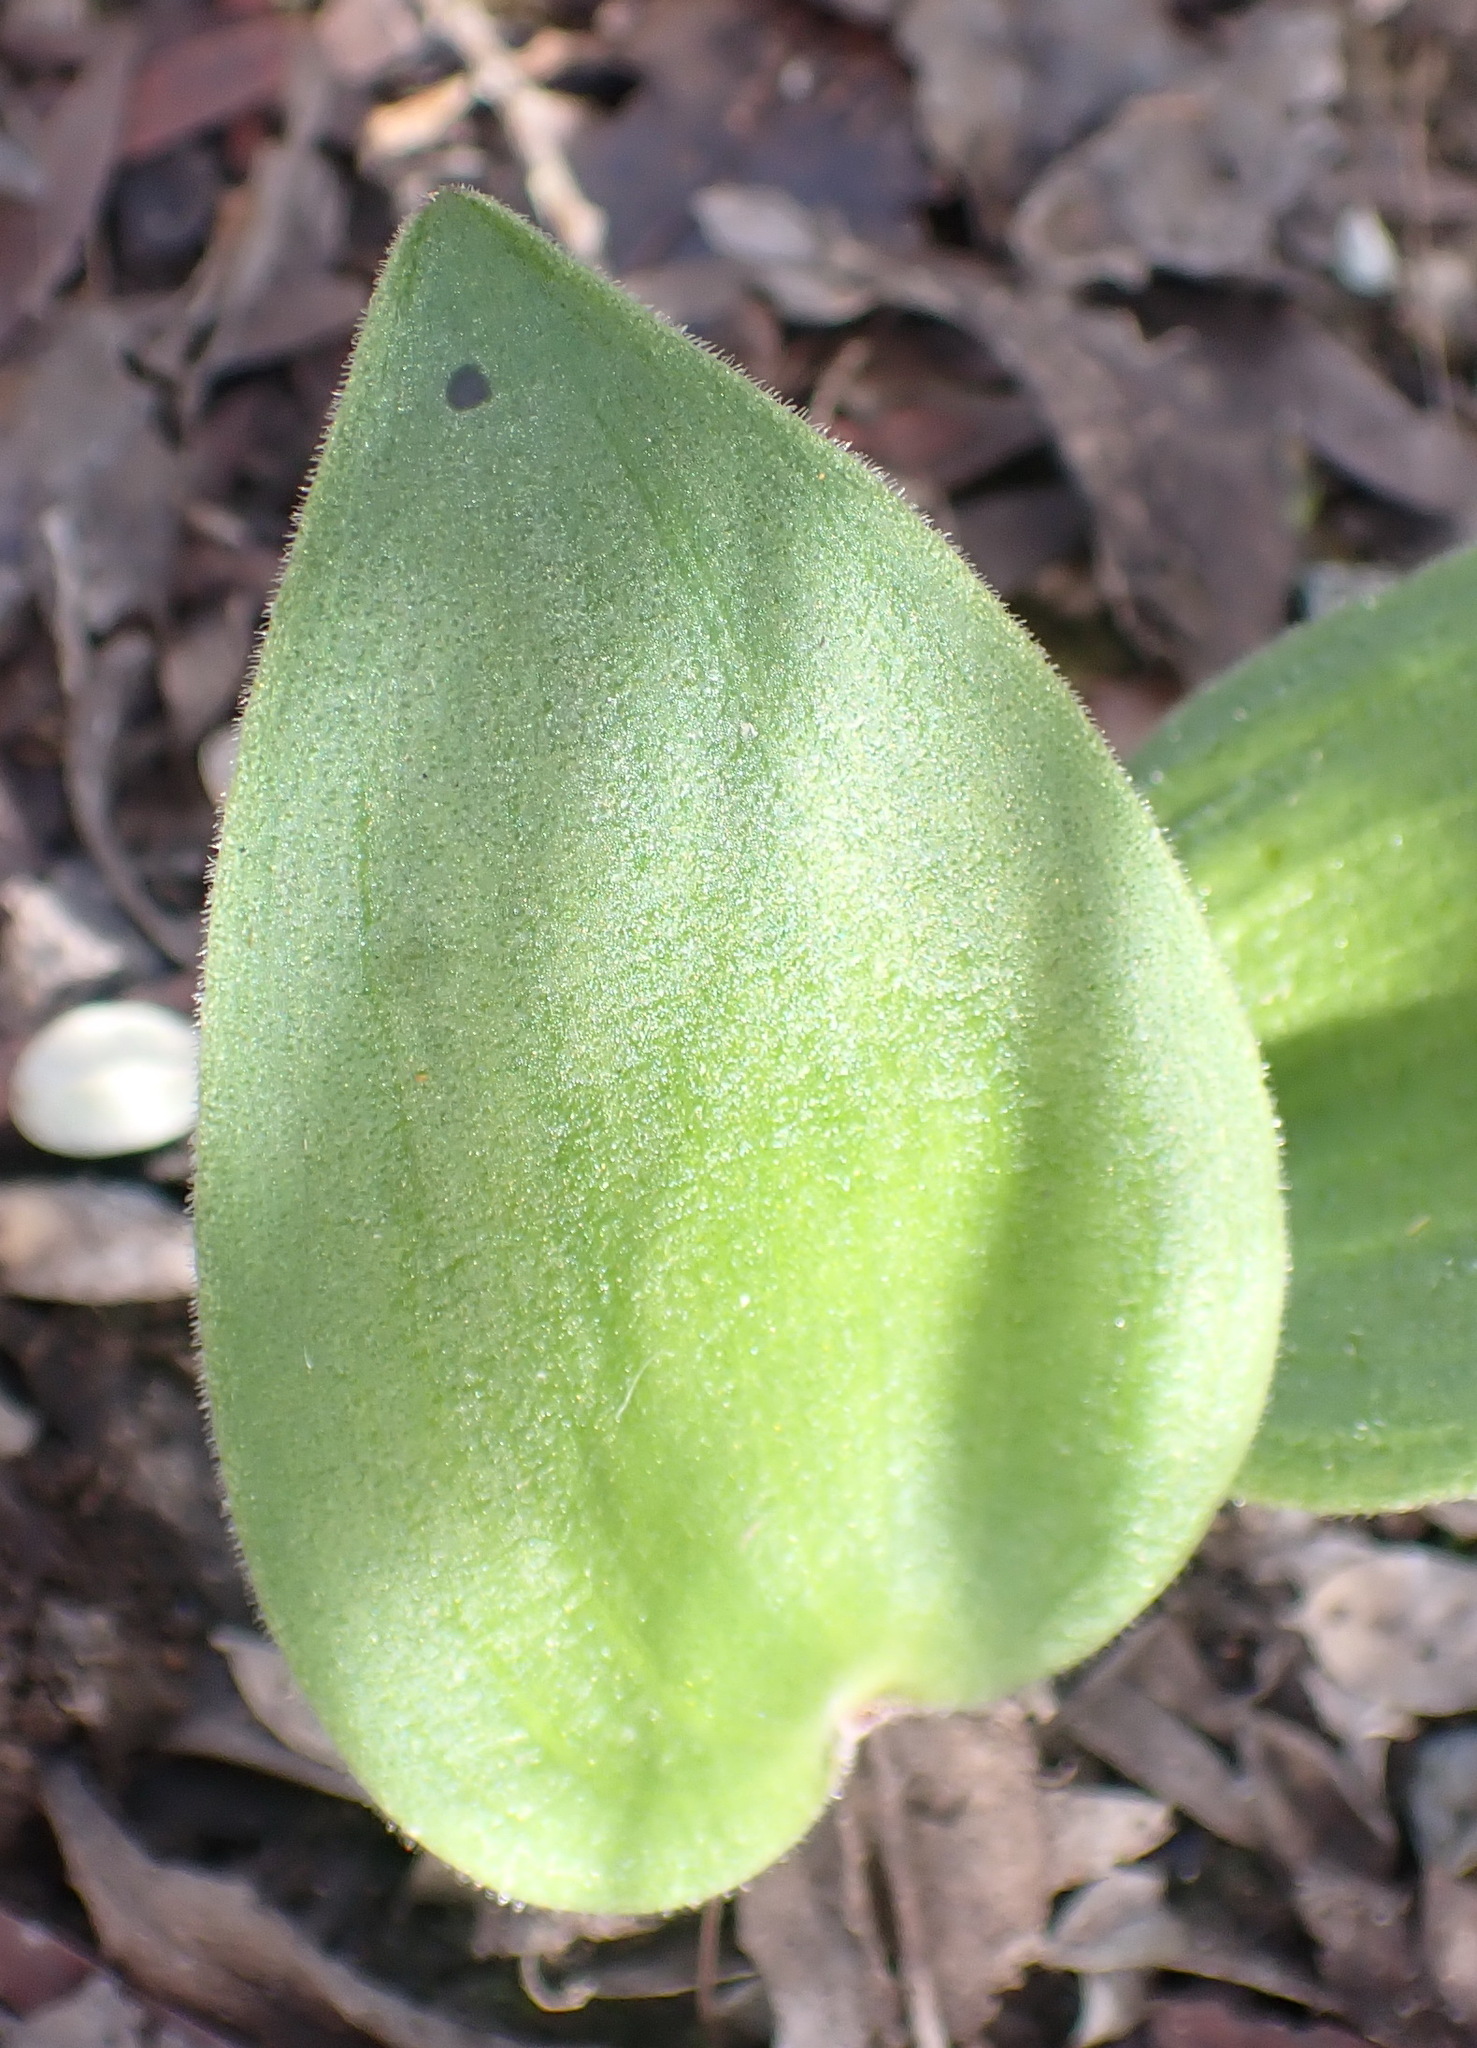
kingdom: Plantae
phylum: Tracheophyta
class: Liliopsida
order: Asparagales
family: Asparagaceae
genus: Eriospermum
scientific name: Eriospermum dielsianum
